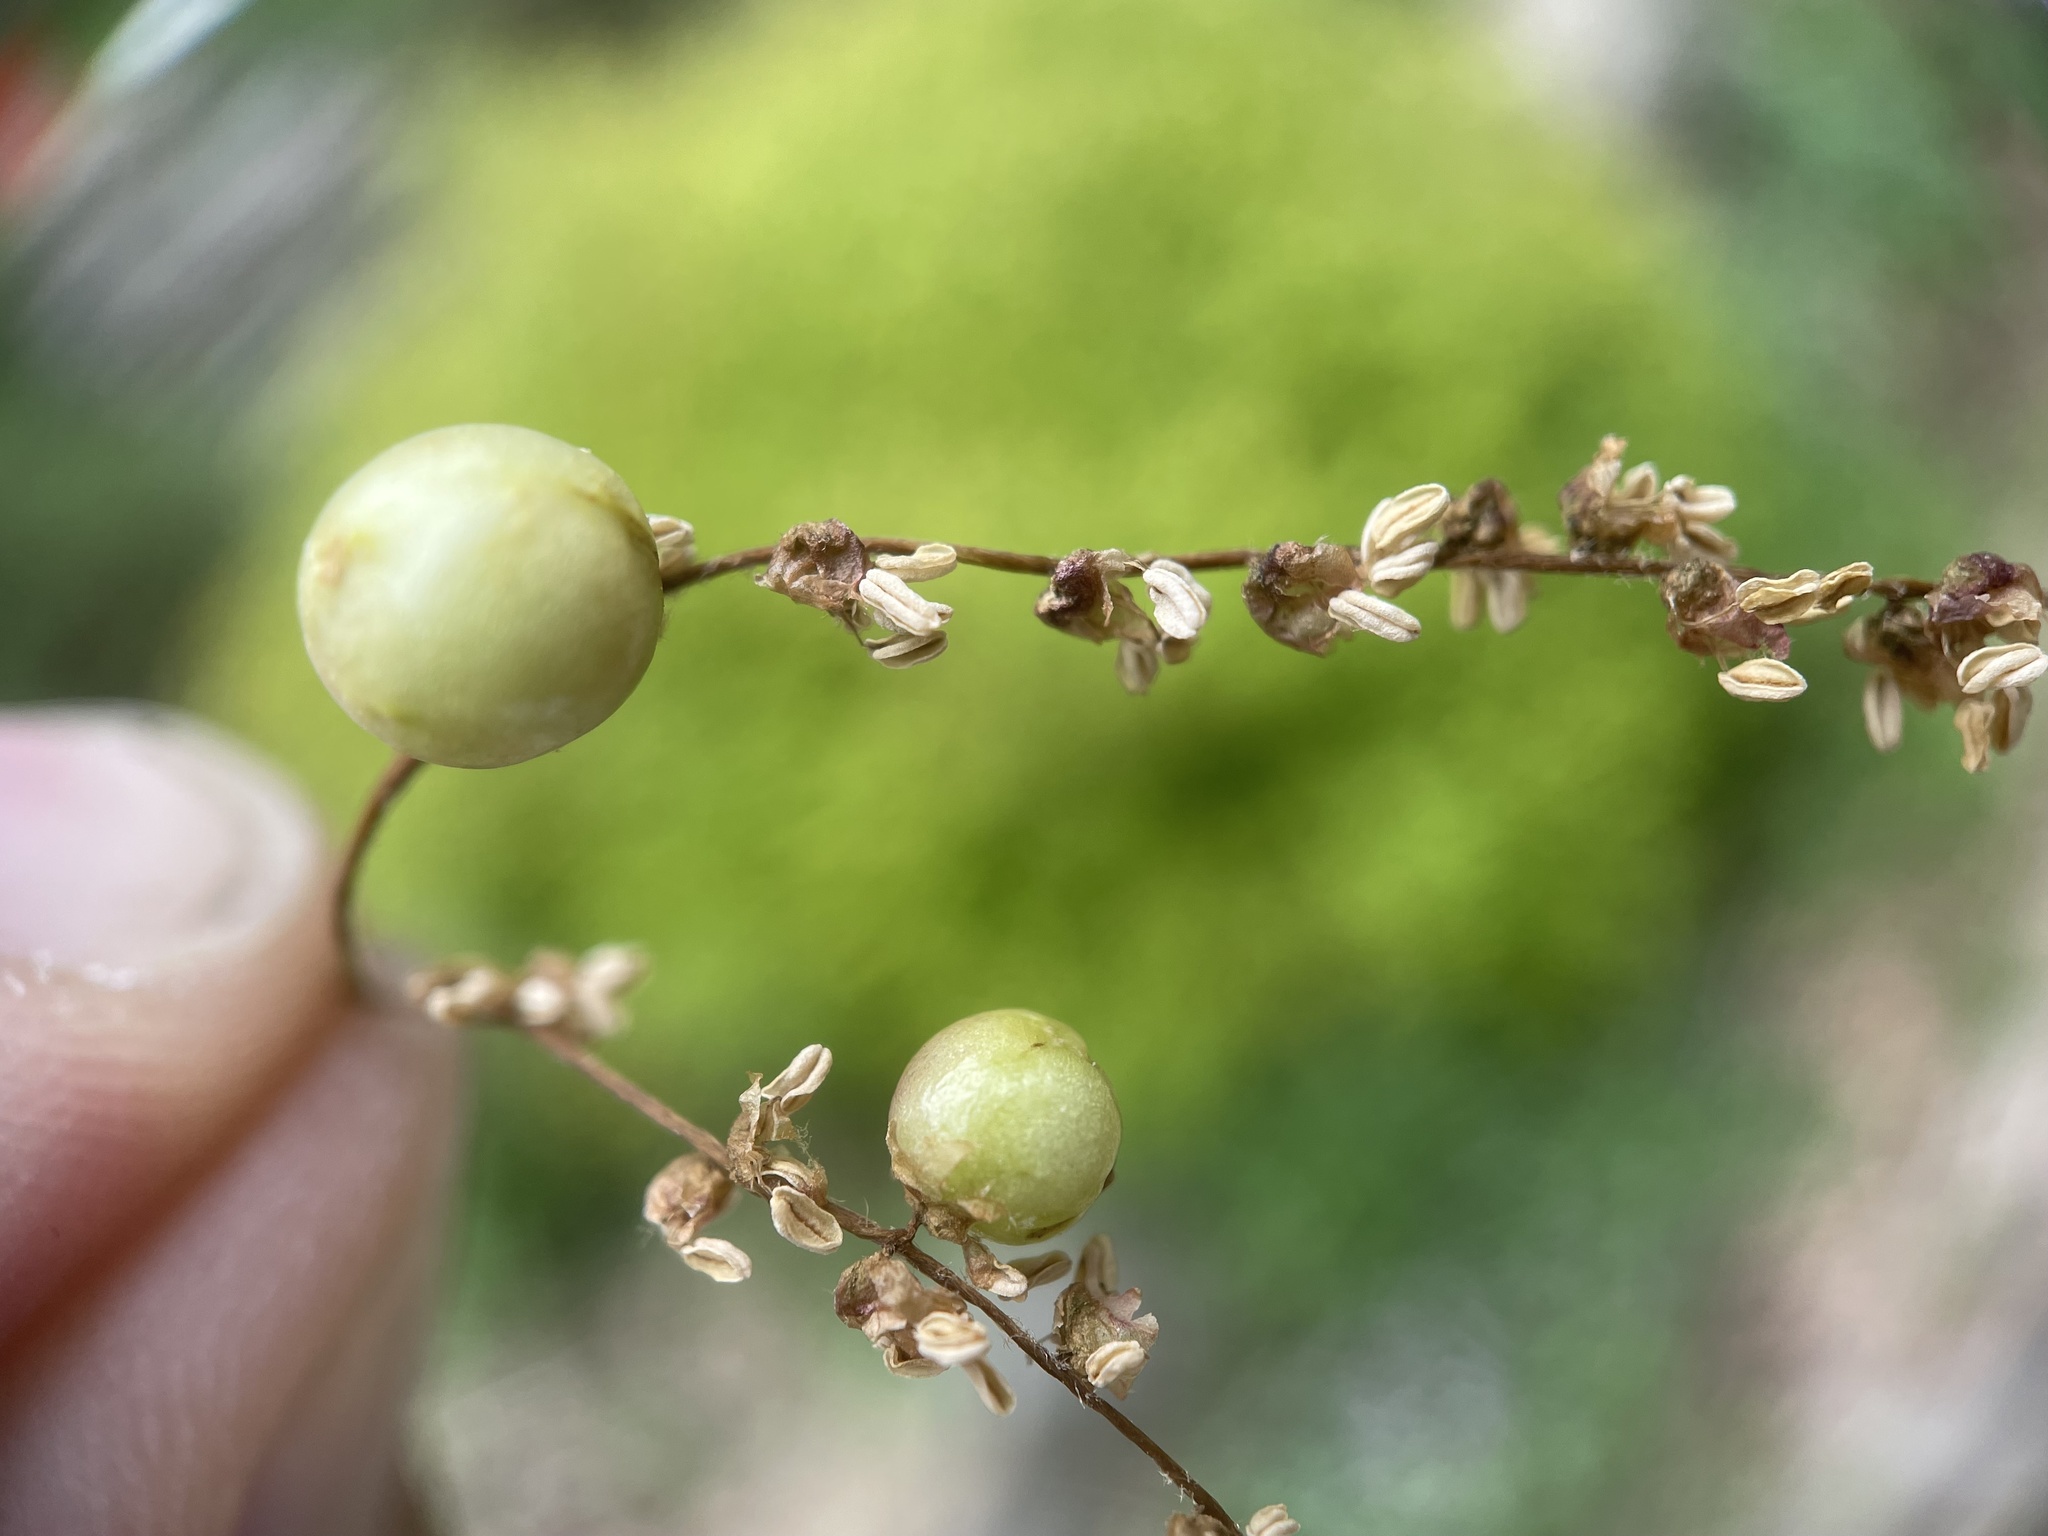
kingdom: Animalia
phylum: Arthropoda
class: Insecta
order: Hymenoptera
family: Cynipidae
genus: Callirhytis
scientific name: Callirhytis
